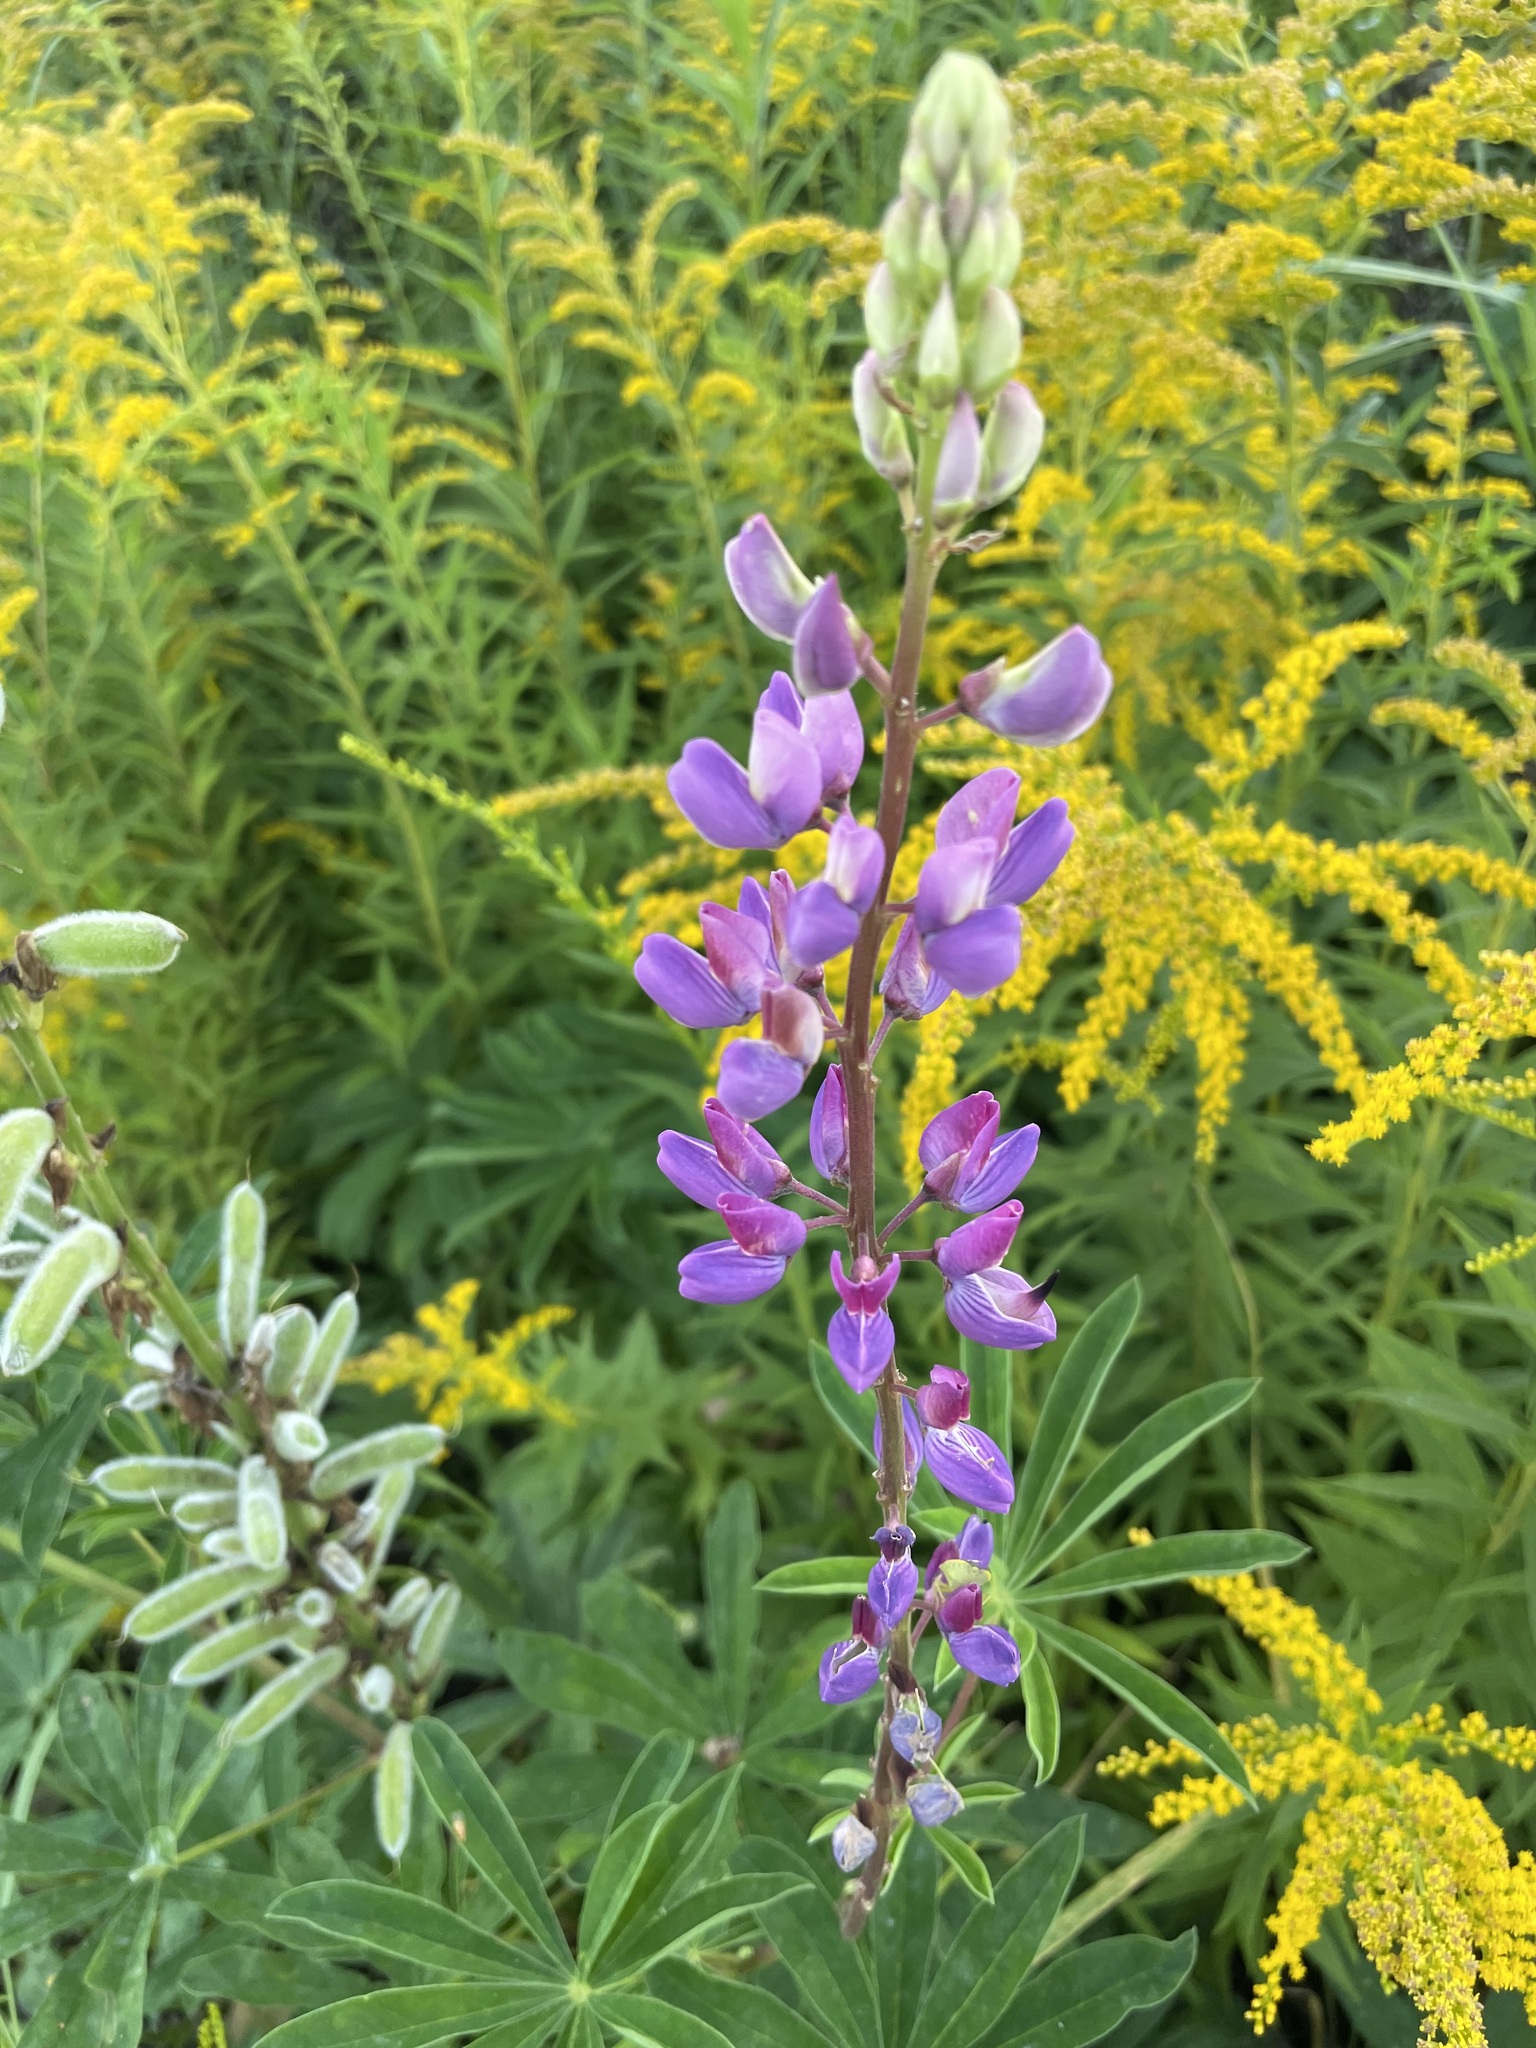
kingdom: Plantae
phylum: Tracheophyta
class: Magnoliopsida
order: Fabales
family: Fabaceae
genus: Lupinus
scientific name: Lupinus polyphyllus
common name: Garden lupin
